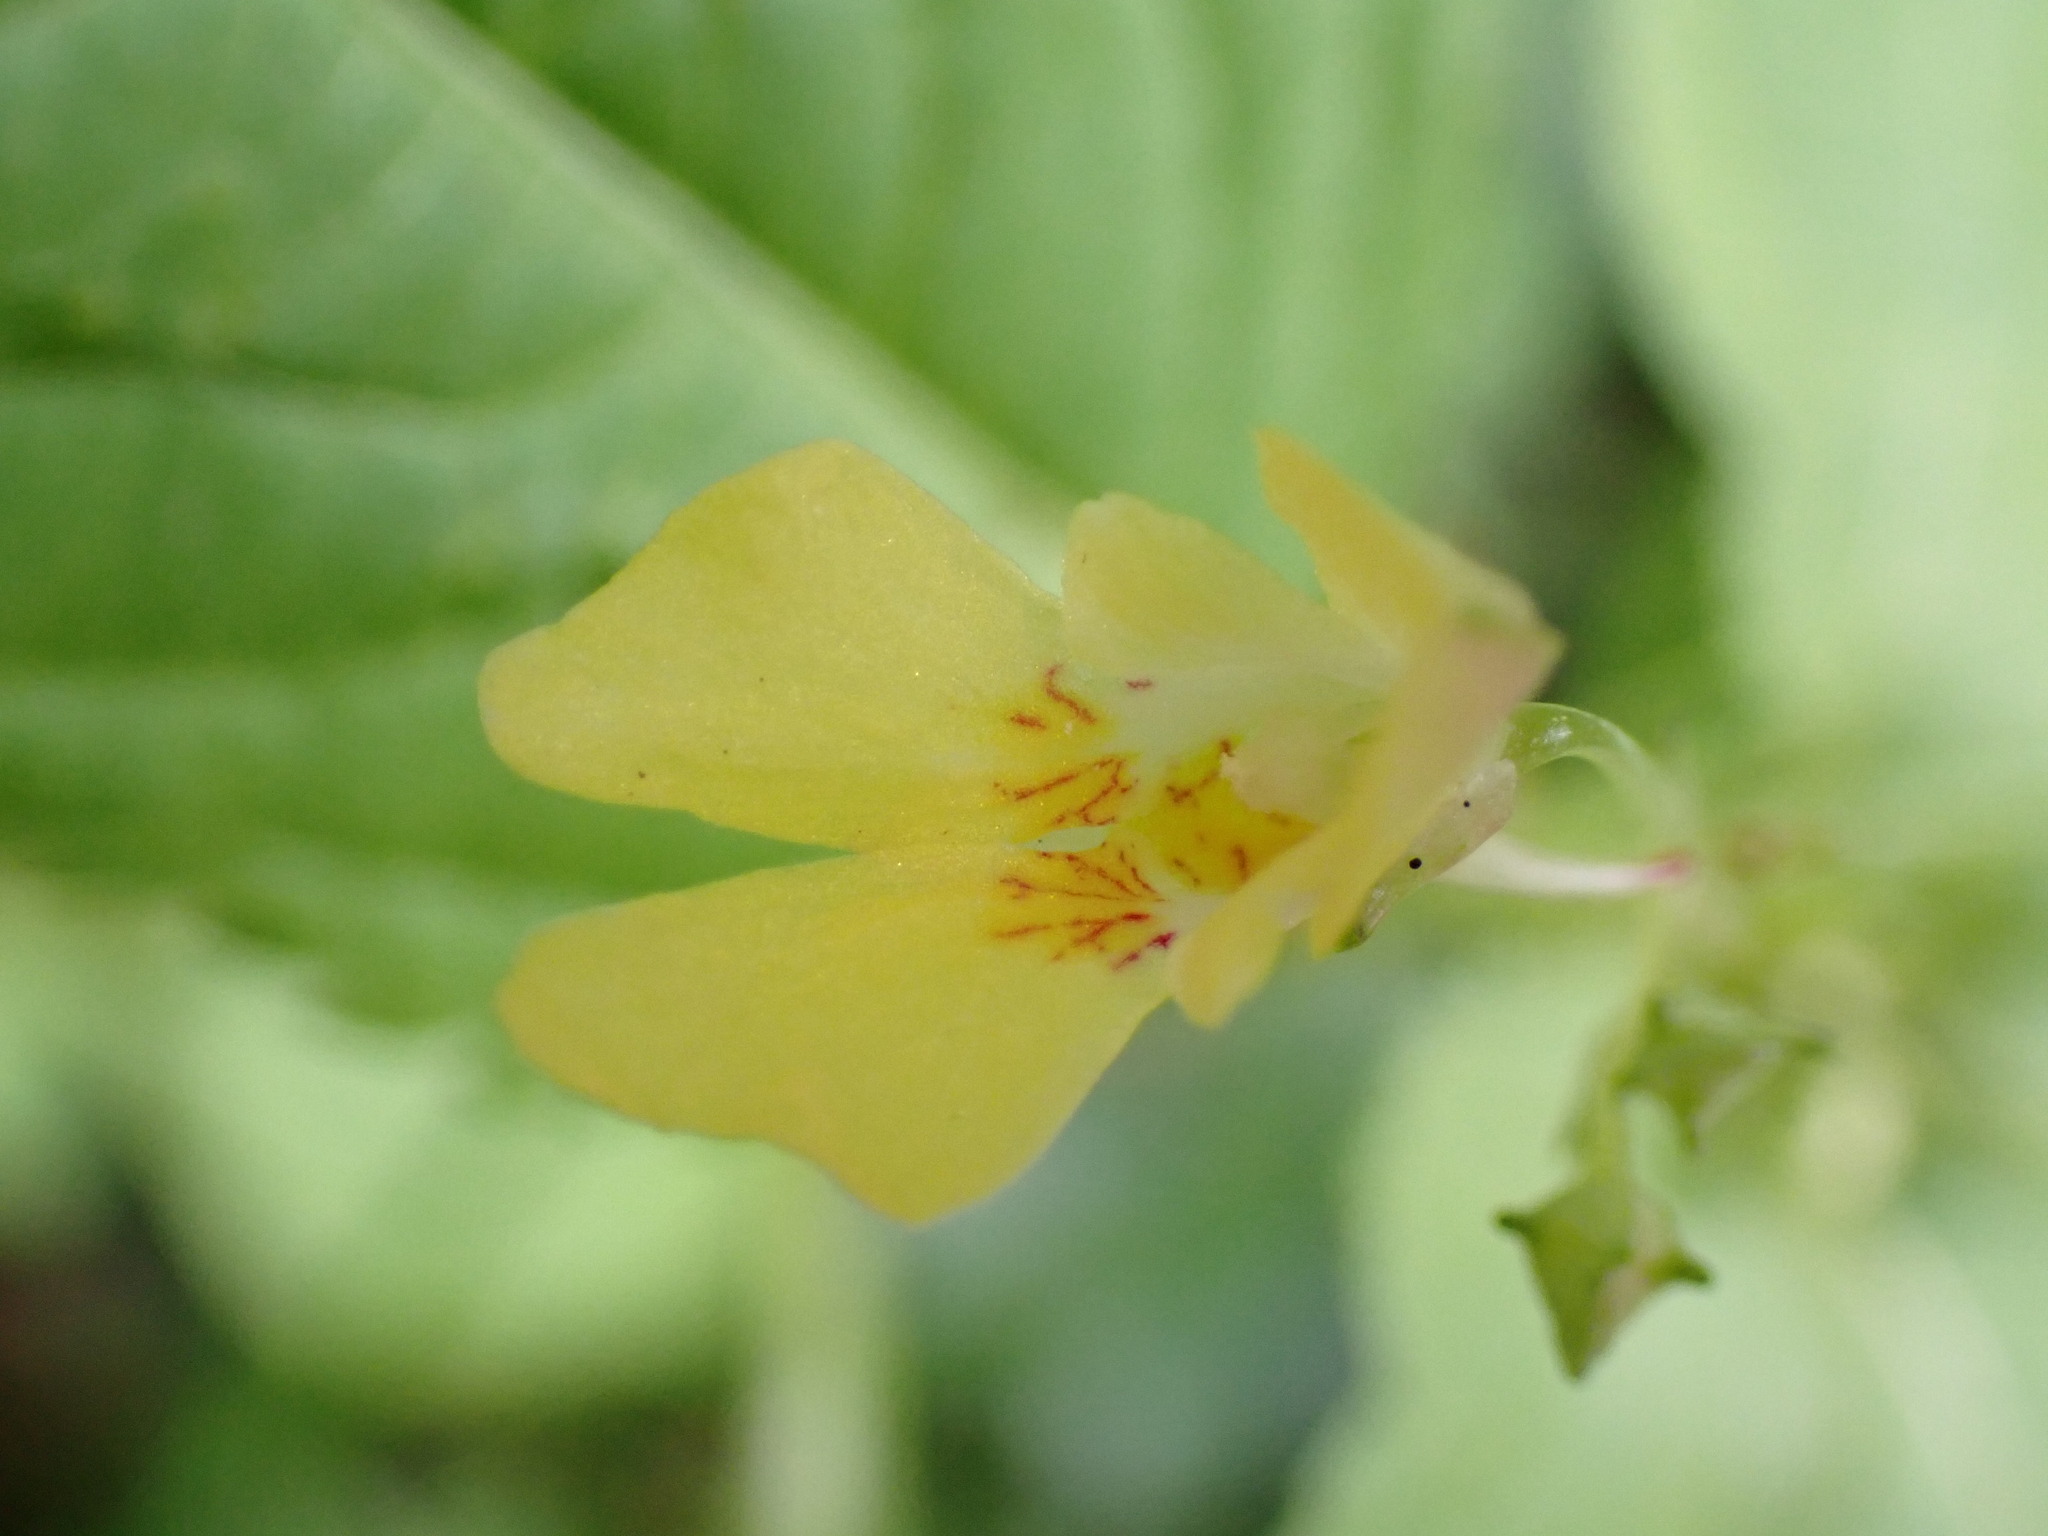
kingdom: Plantae
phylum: Tracheophyta
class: Magnoliopsida
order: Ericales
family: Balsaminaceae
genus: Impatiens
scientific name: Impatiens parviflora
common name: Small balsam
